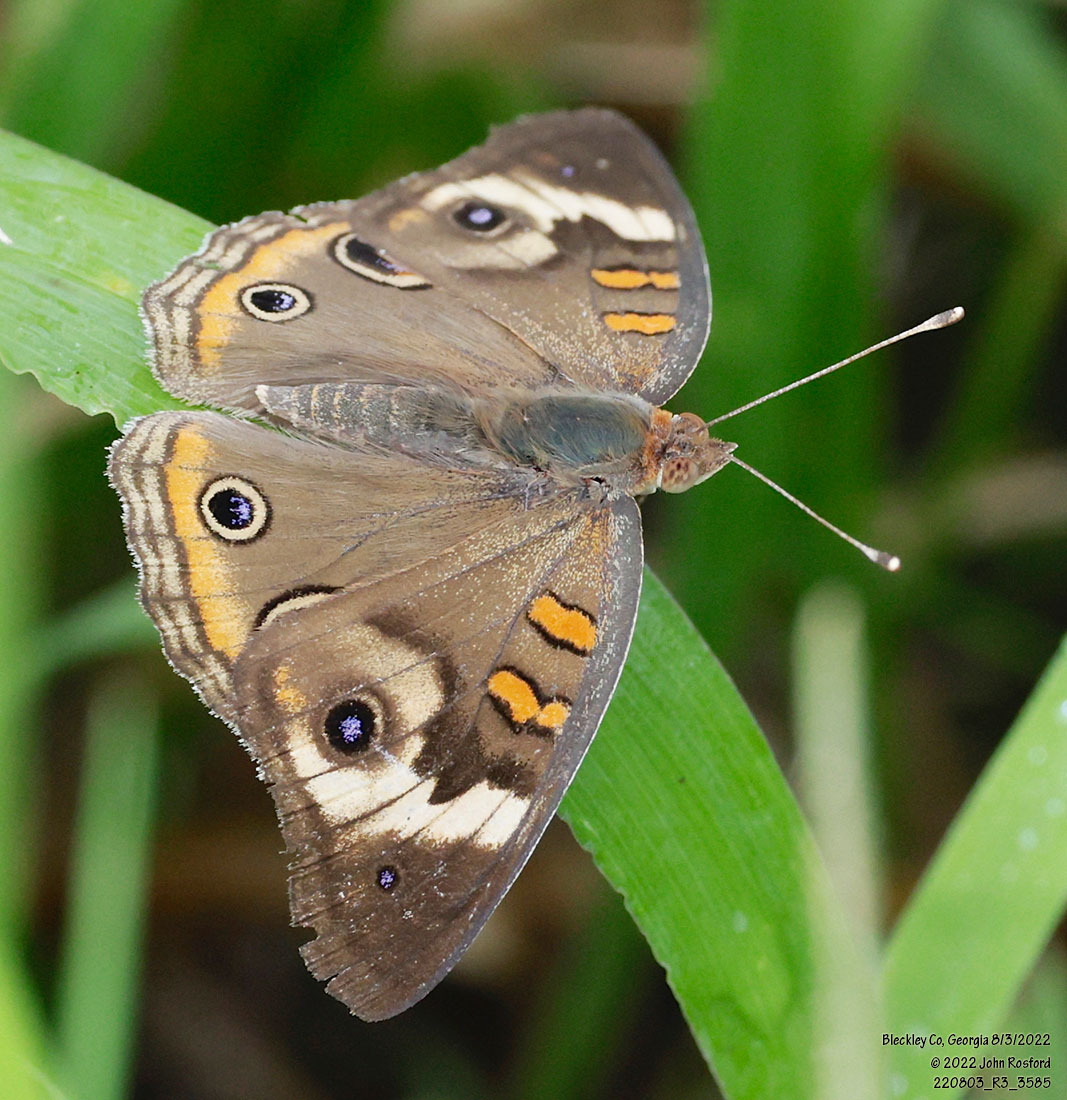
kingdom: Animalia
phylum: Arthropoda
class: Insecta
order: Lepidoptera
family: Nymphalidae
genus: Junonia
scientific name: Junonia coenia
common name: Common buckeye
